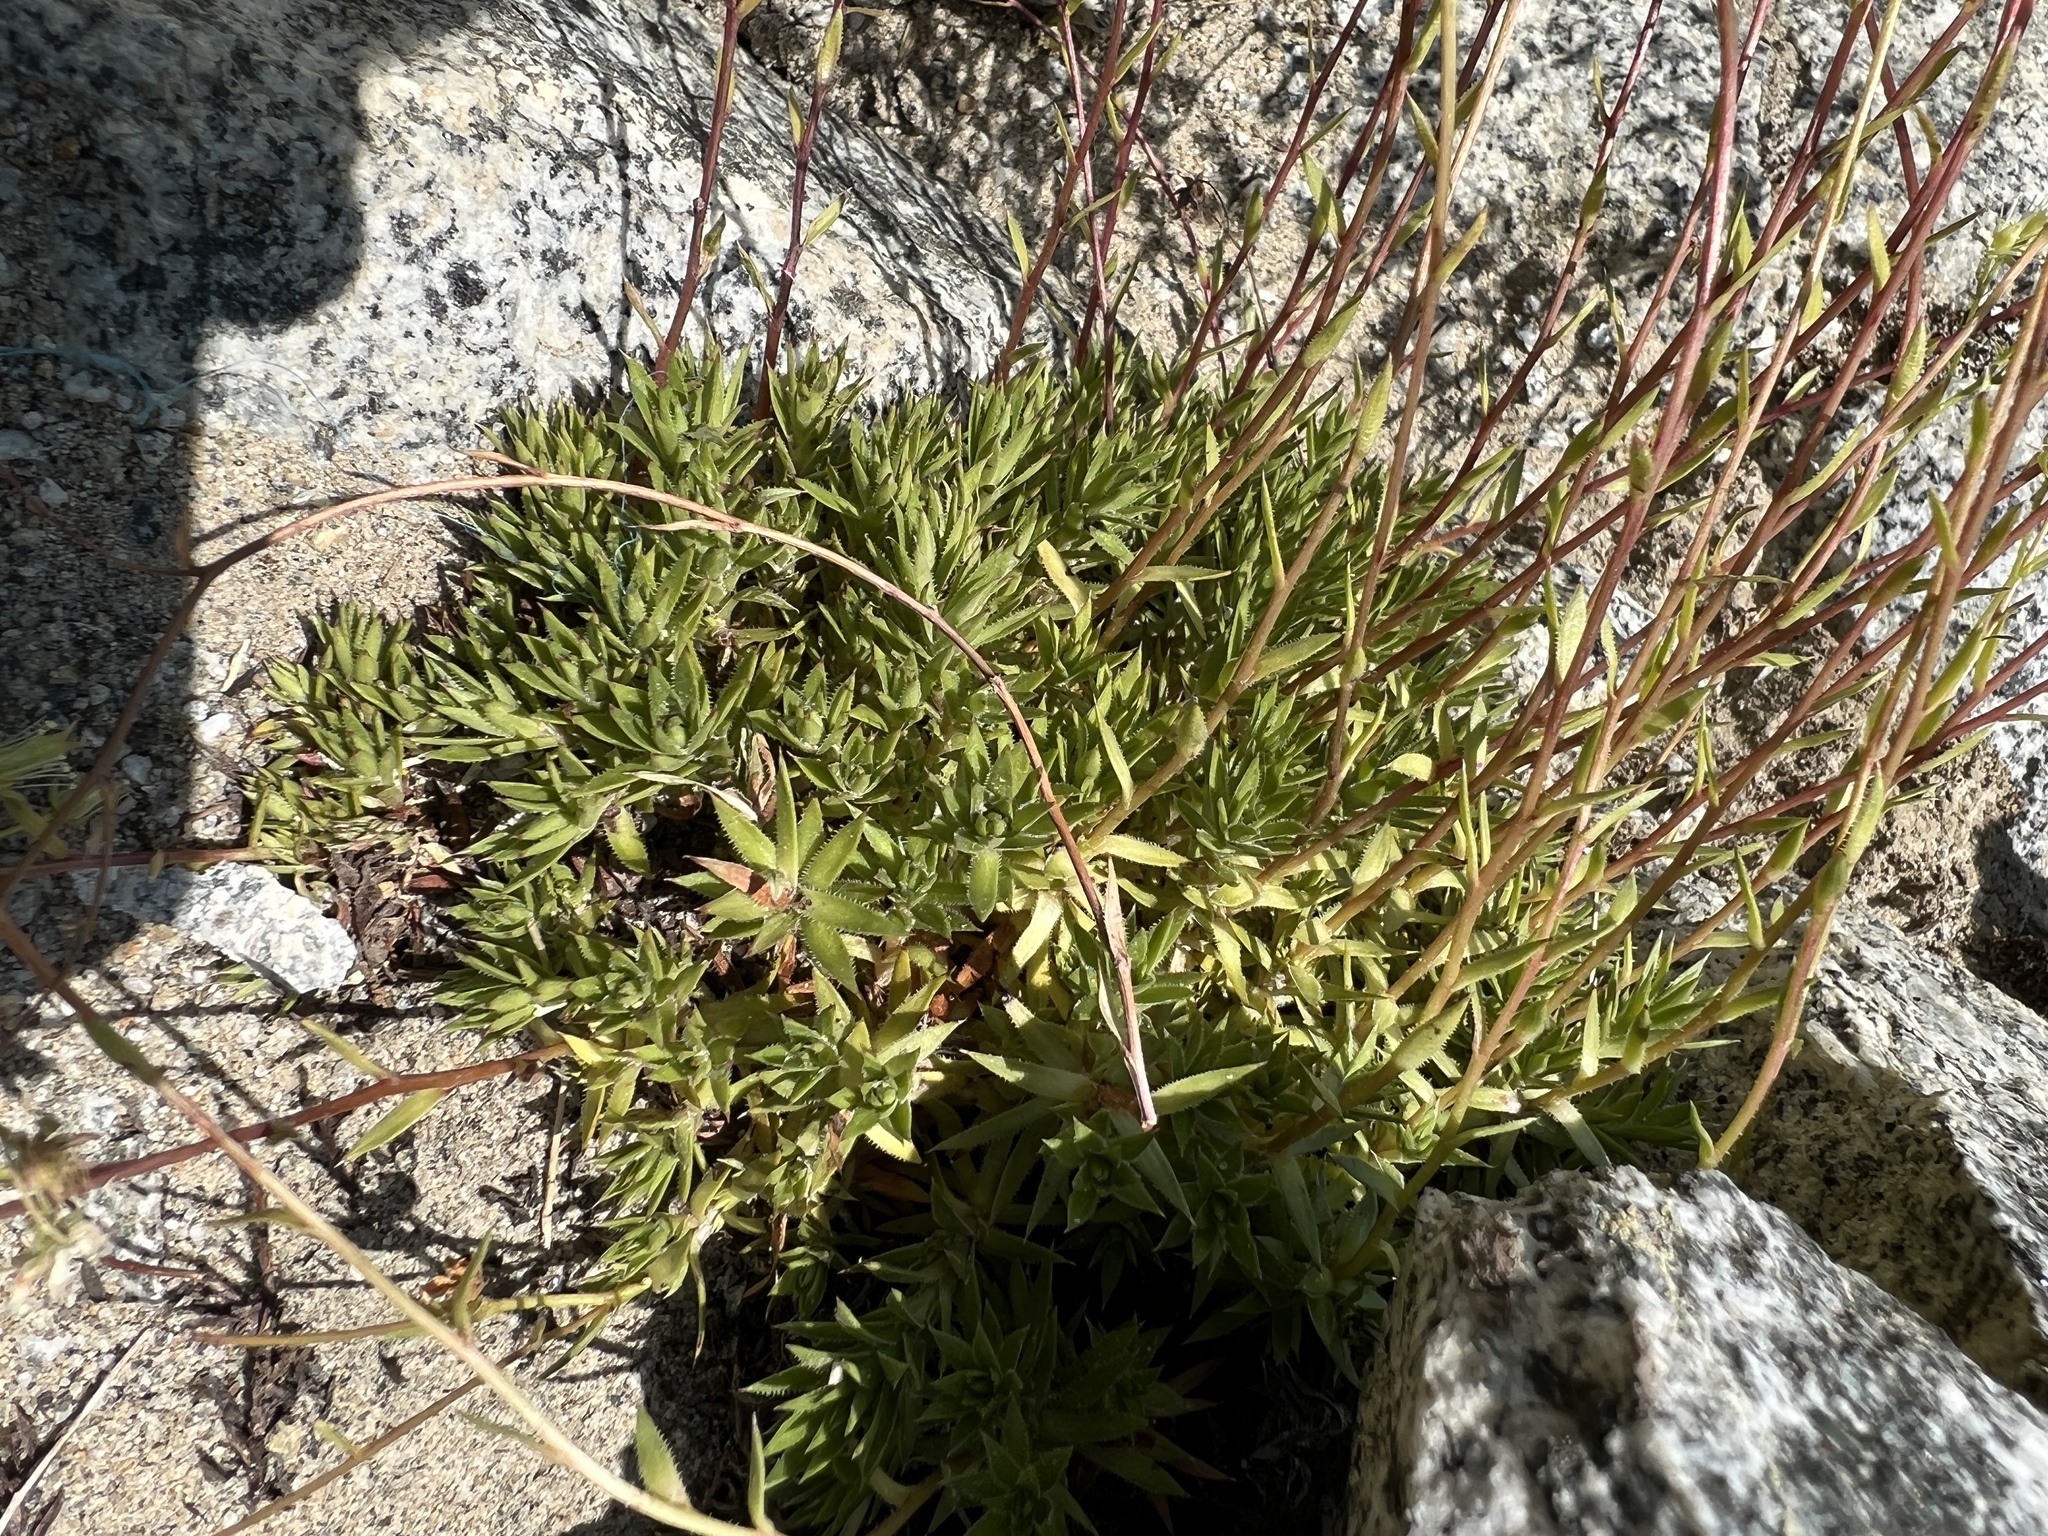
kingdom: Plantae
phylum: Tracheophyta
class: Magnoliopsida
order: Saxifragales
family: Saxifragaceae
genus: Saxifraga
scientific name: Saxifraga bronchialis
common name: Matted saxifrage
